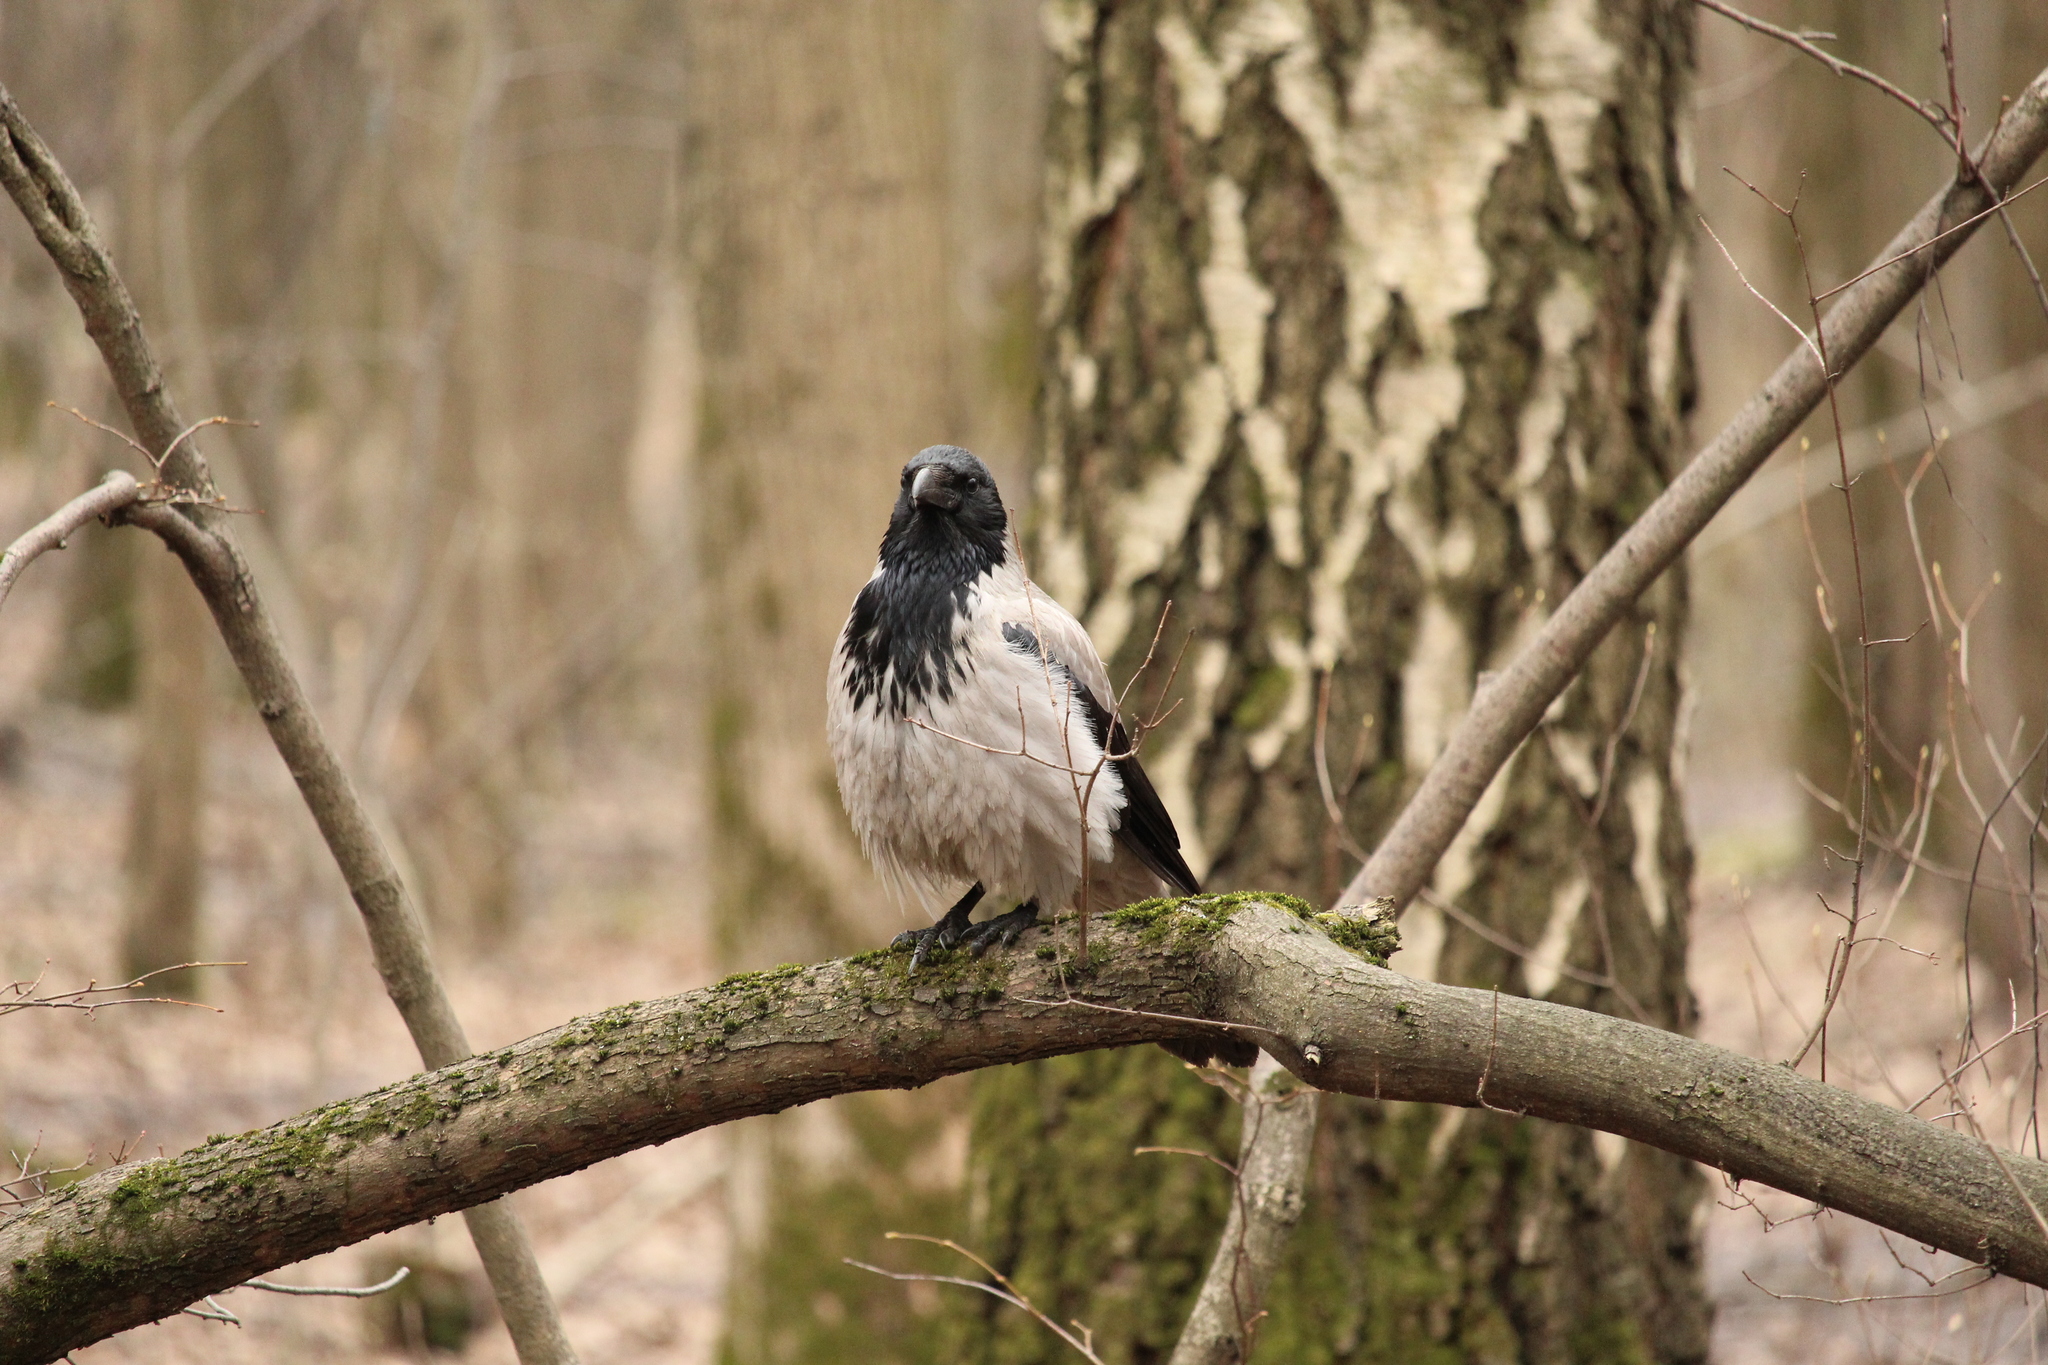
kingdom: Animalia
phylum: Chordata
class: Aves
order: Passeriformes
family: Corvidae
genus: Corvus
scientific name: Corvus cornix
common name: Hooded crow
